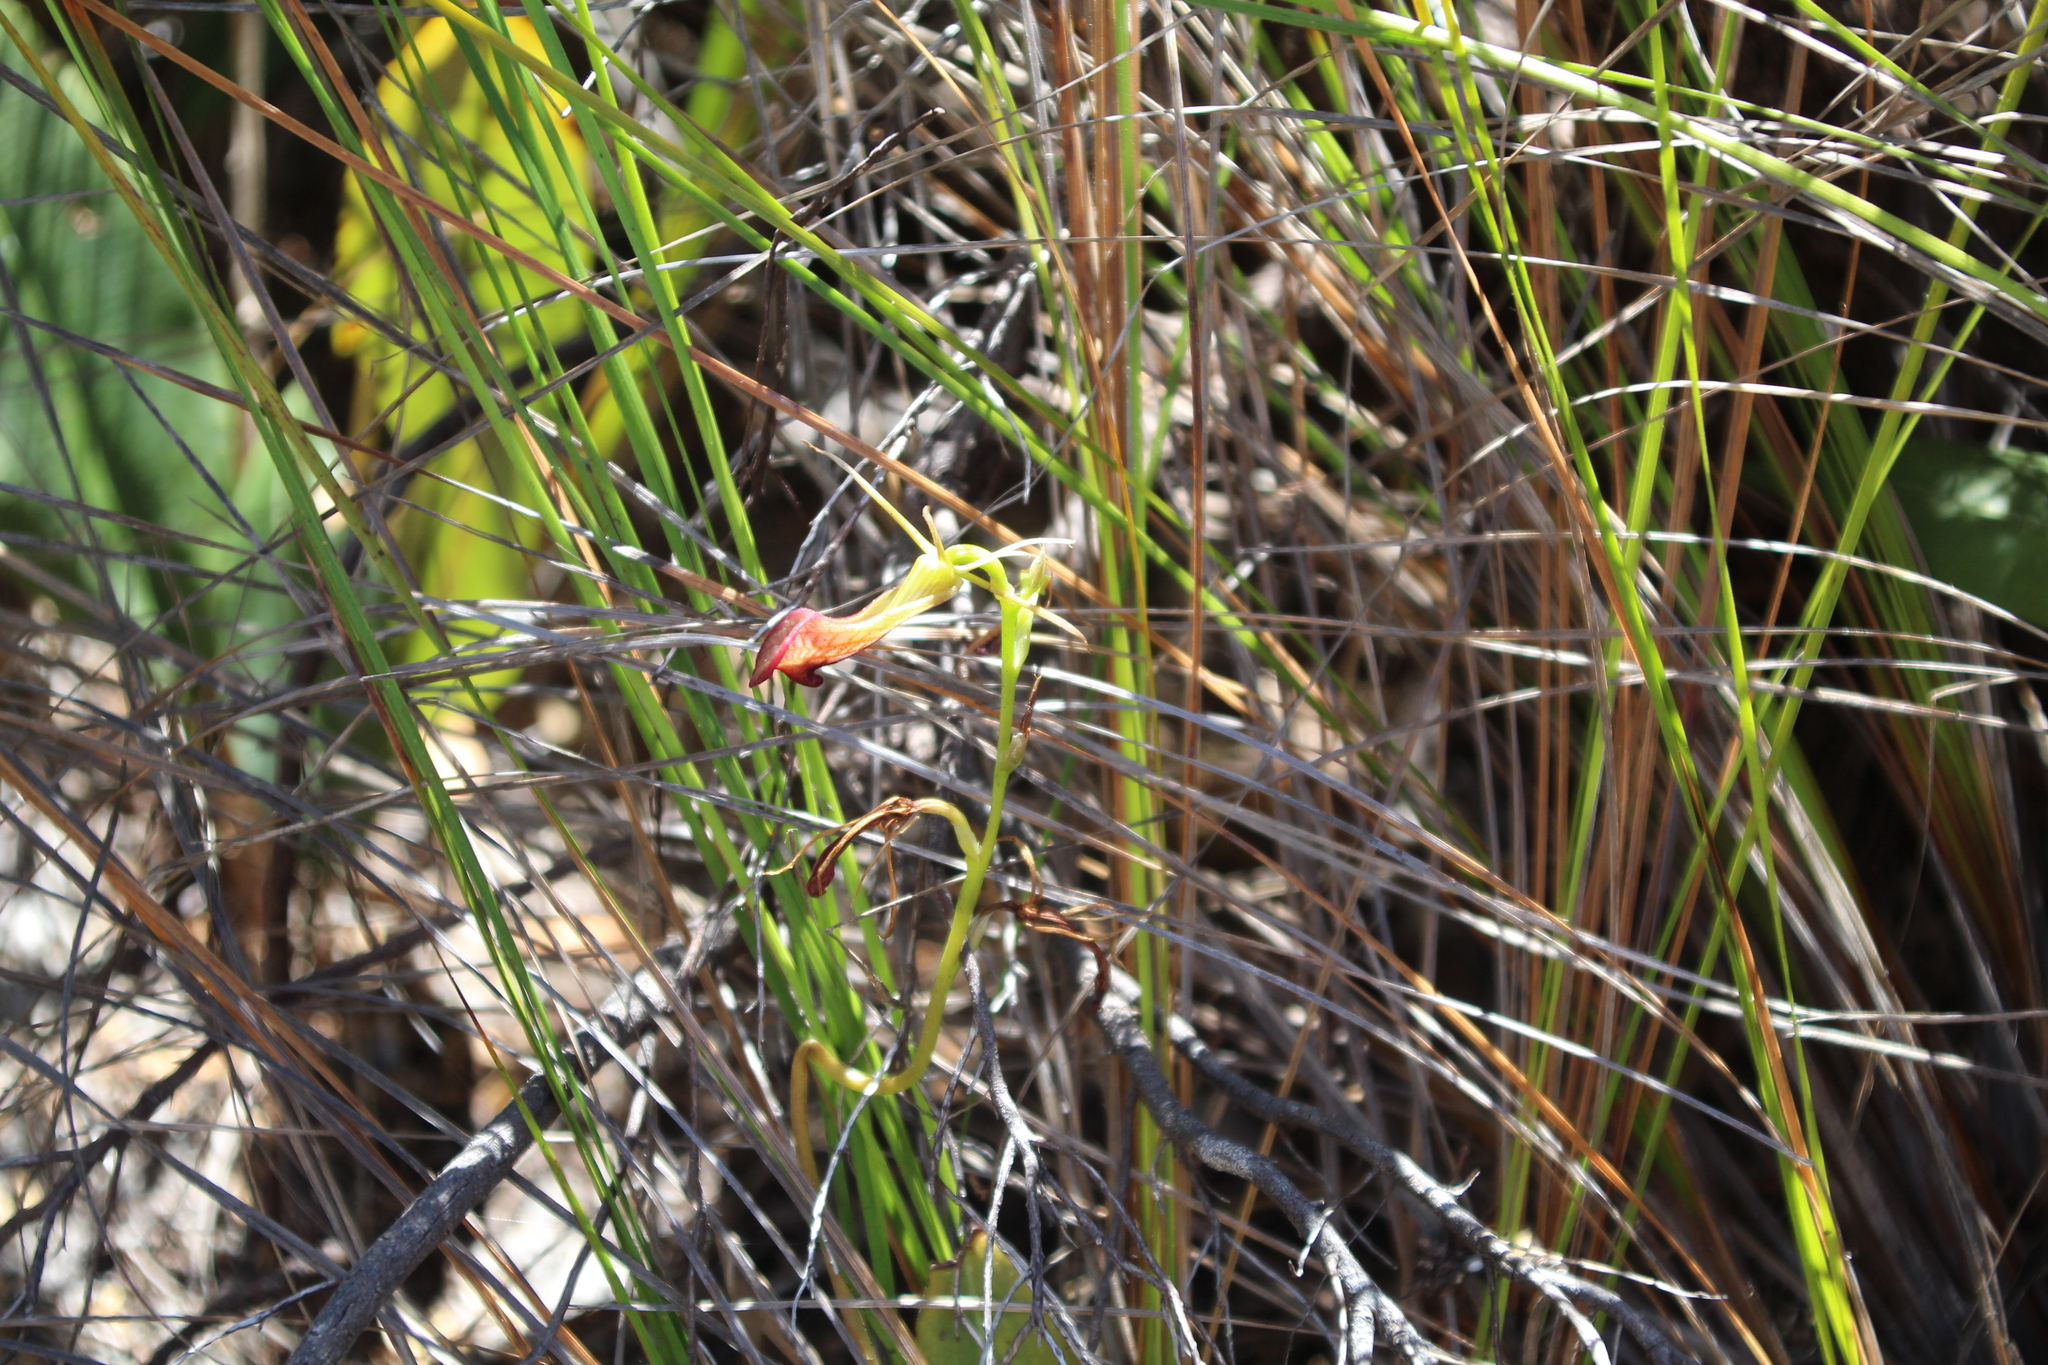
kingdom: Plantae
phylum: Tracheophyta
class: Liliopsida
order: Asparagales
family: Orchidaceae
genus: Cryptostylis
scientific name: Cryptostylis ovata
